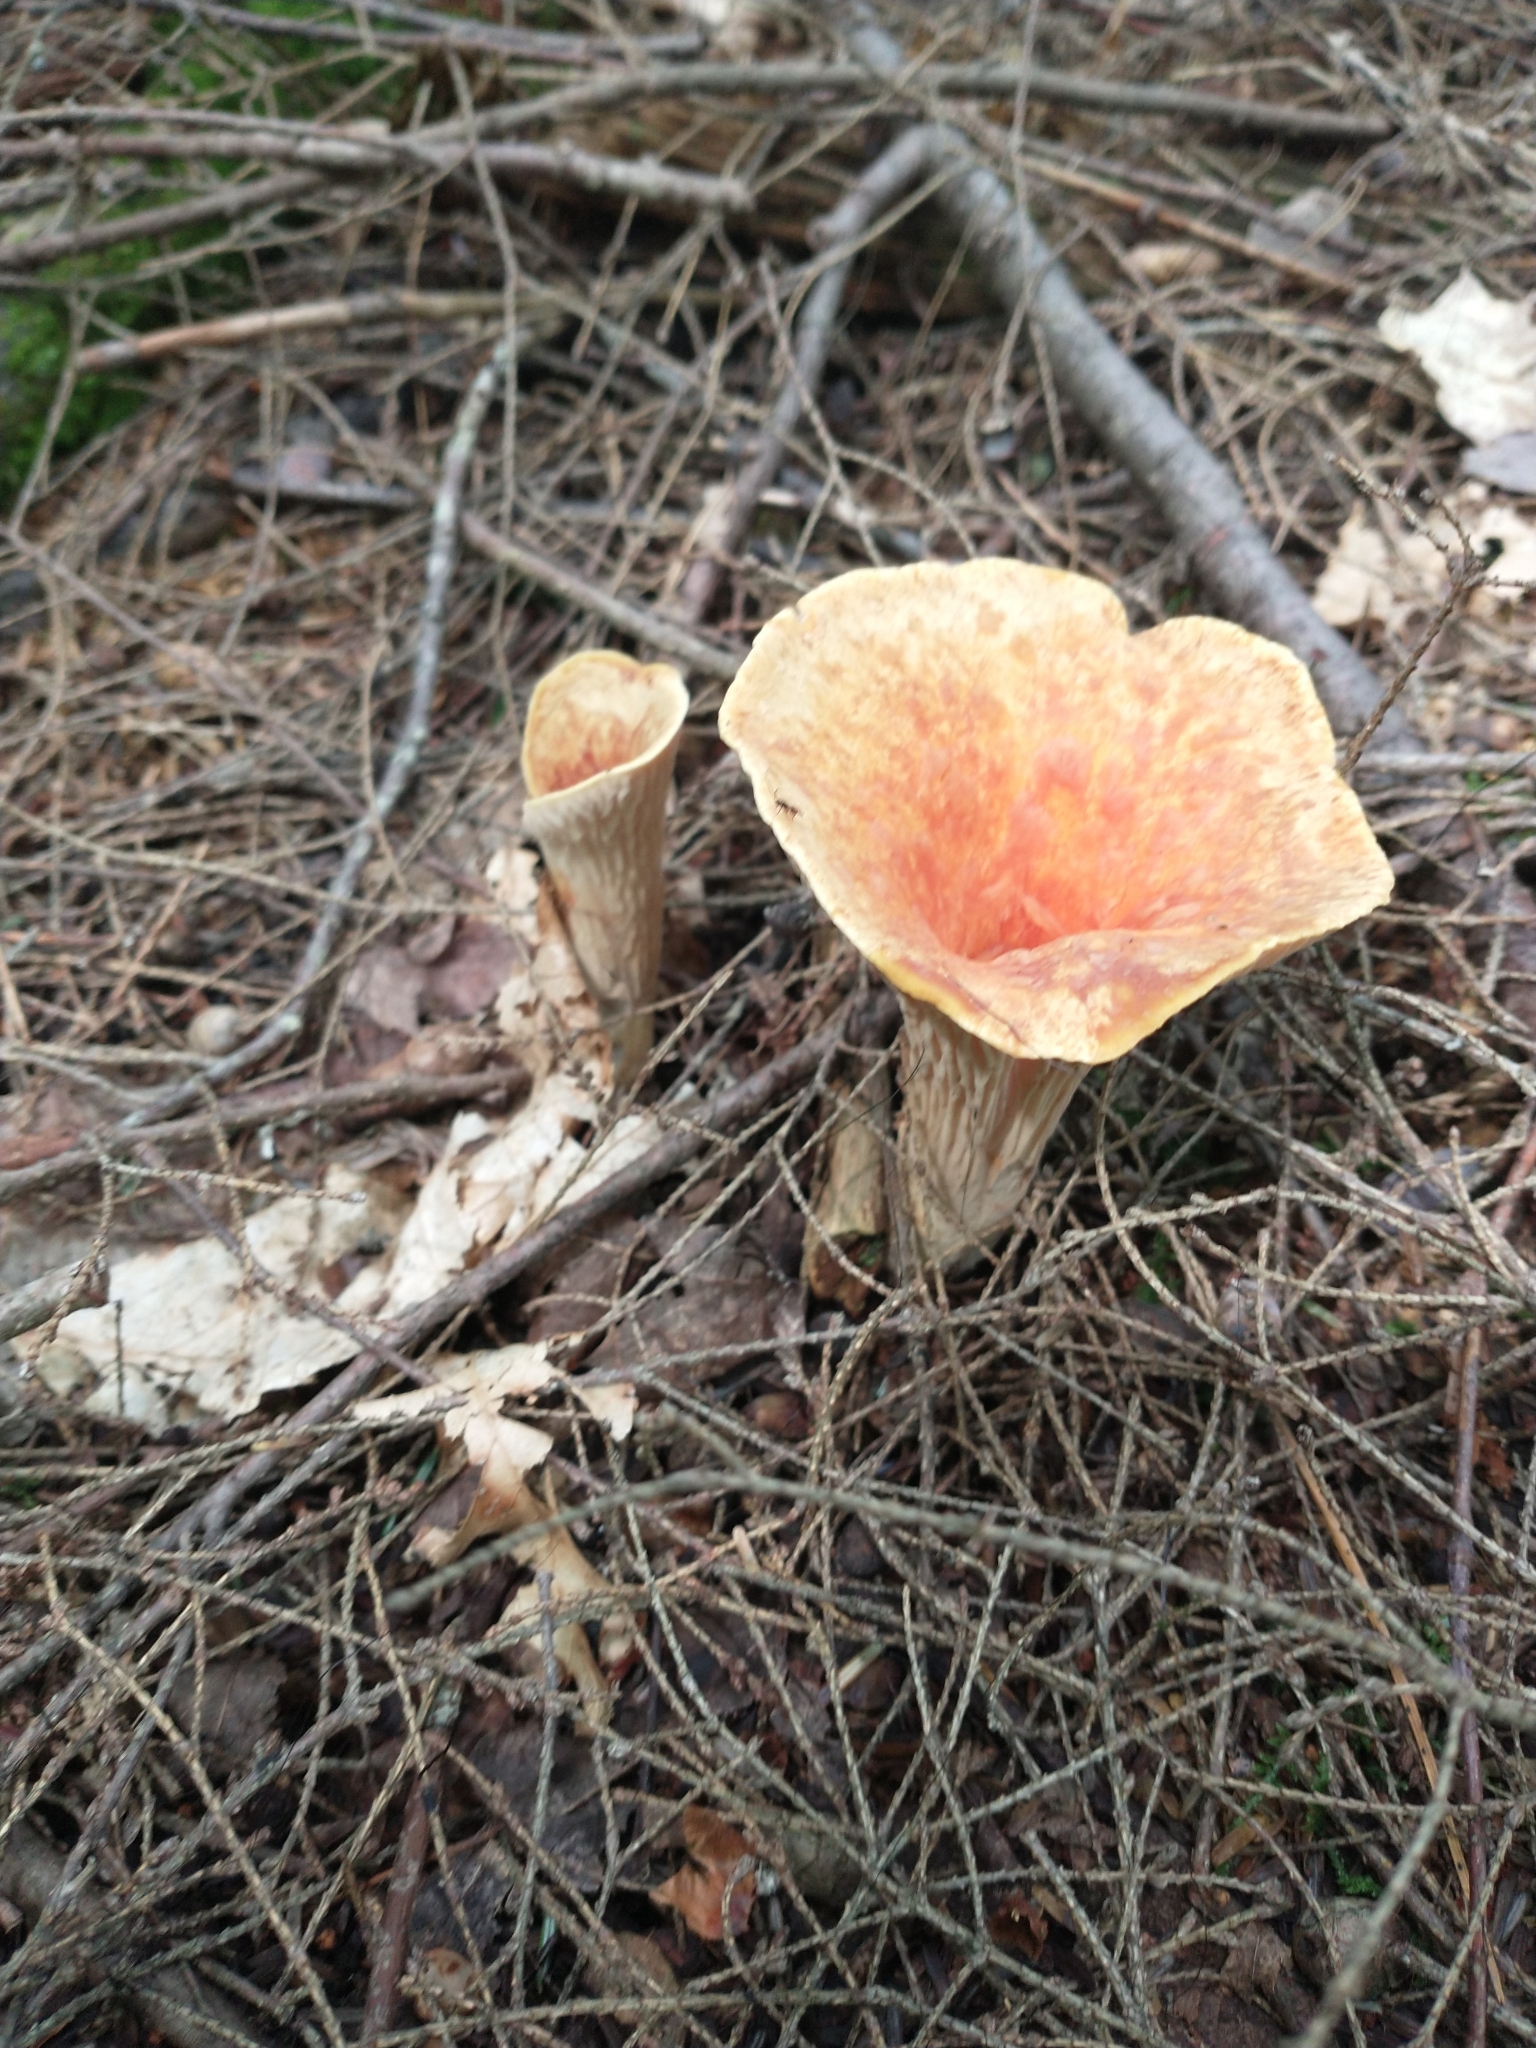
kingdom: Fungi
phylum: Basidiomycota
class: Agaricomycetes
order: Gomphales
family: Gomphaceae
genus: Turbinellus
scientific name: Turbinellus floccosus
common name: Scaly chanterelle
